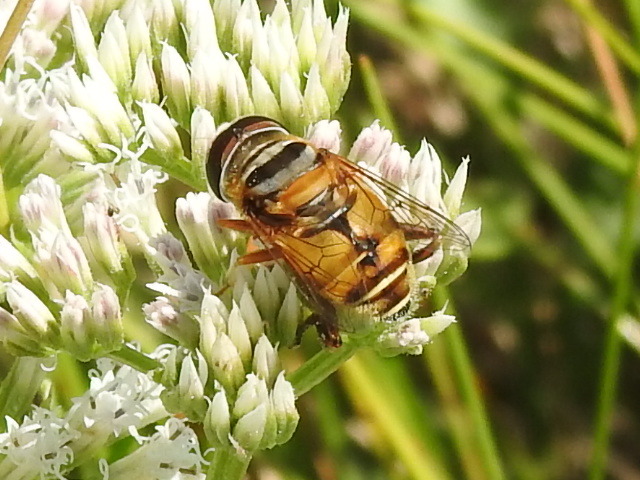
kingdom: Animalia
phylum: Arthropoda
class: Insecta
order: Diptera
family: Syrphidae
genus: Palpada
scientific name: Palpada vinetorum
